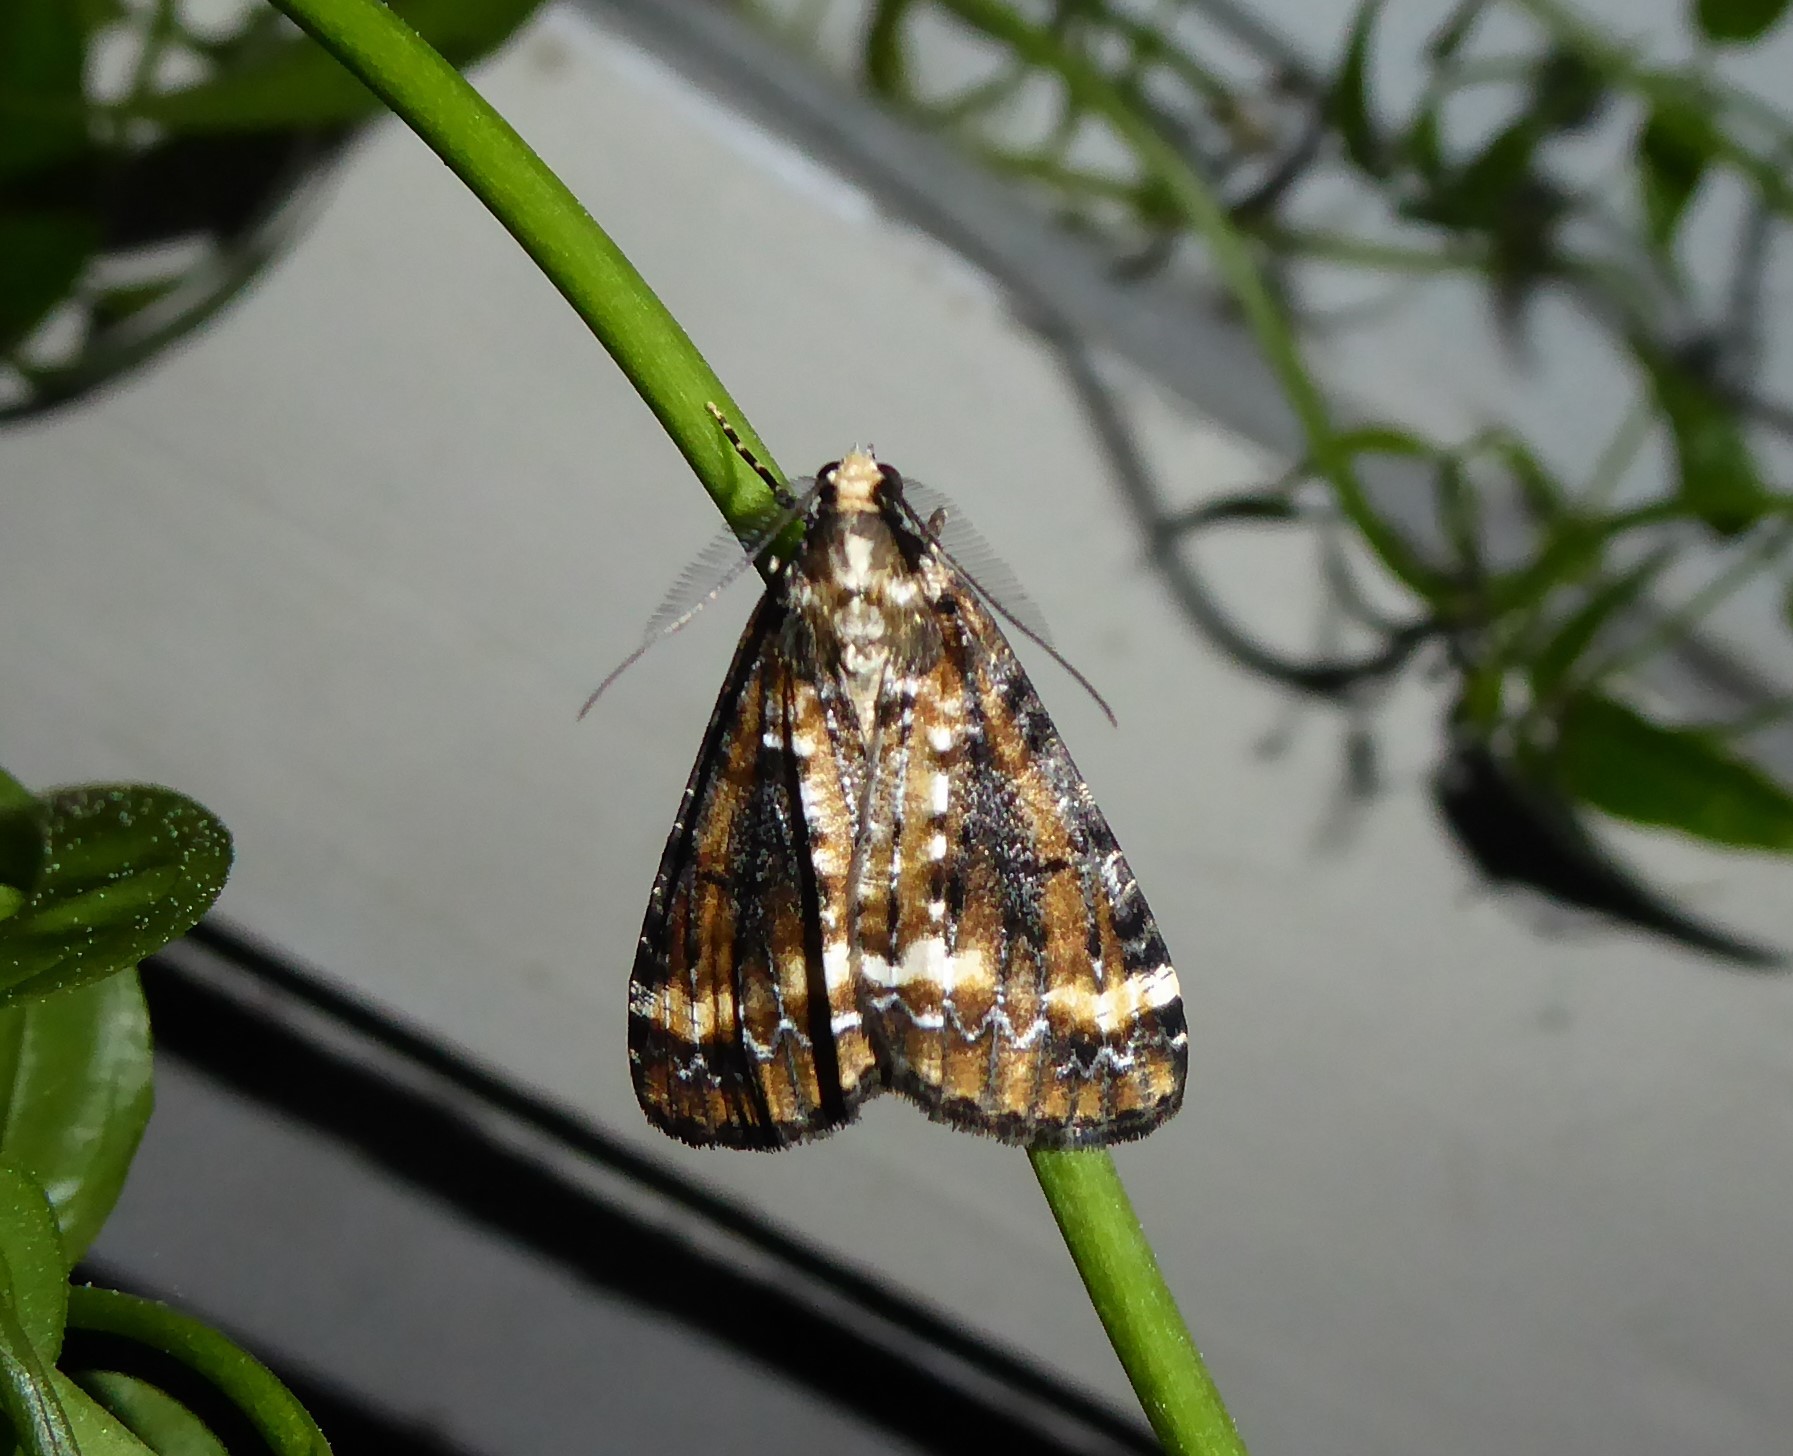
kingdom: Animalia
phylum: Arthropoda
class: Insecta
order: Lepidoptera
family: Geometridae
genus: Pseudocoremia
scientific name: Pseudocoremia leucelaea
